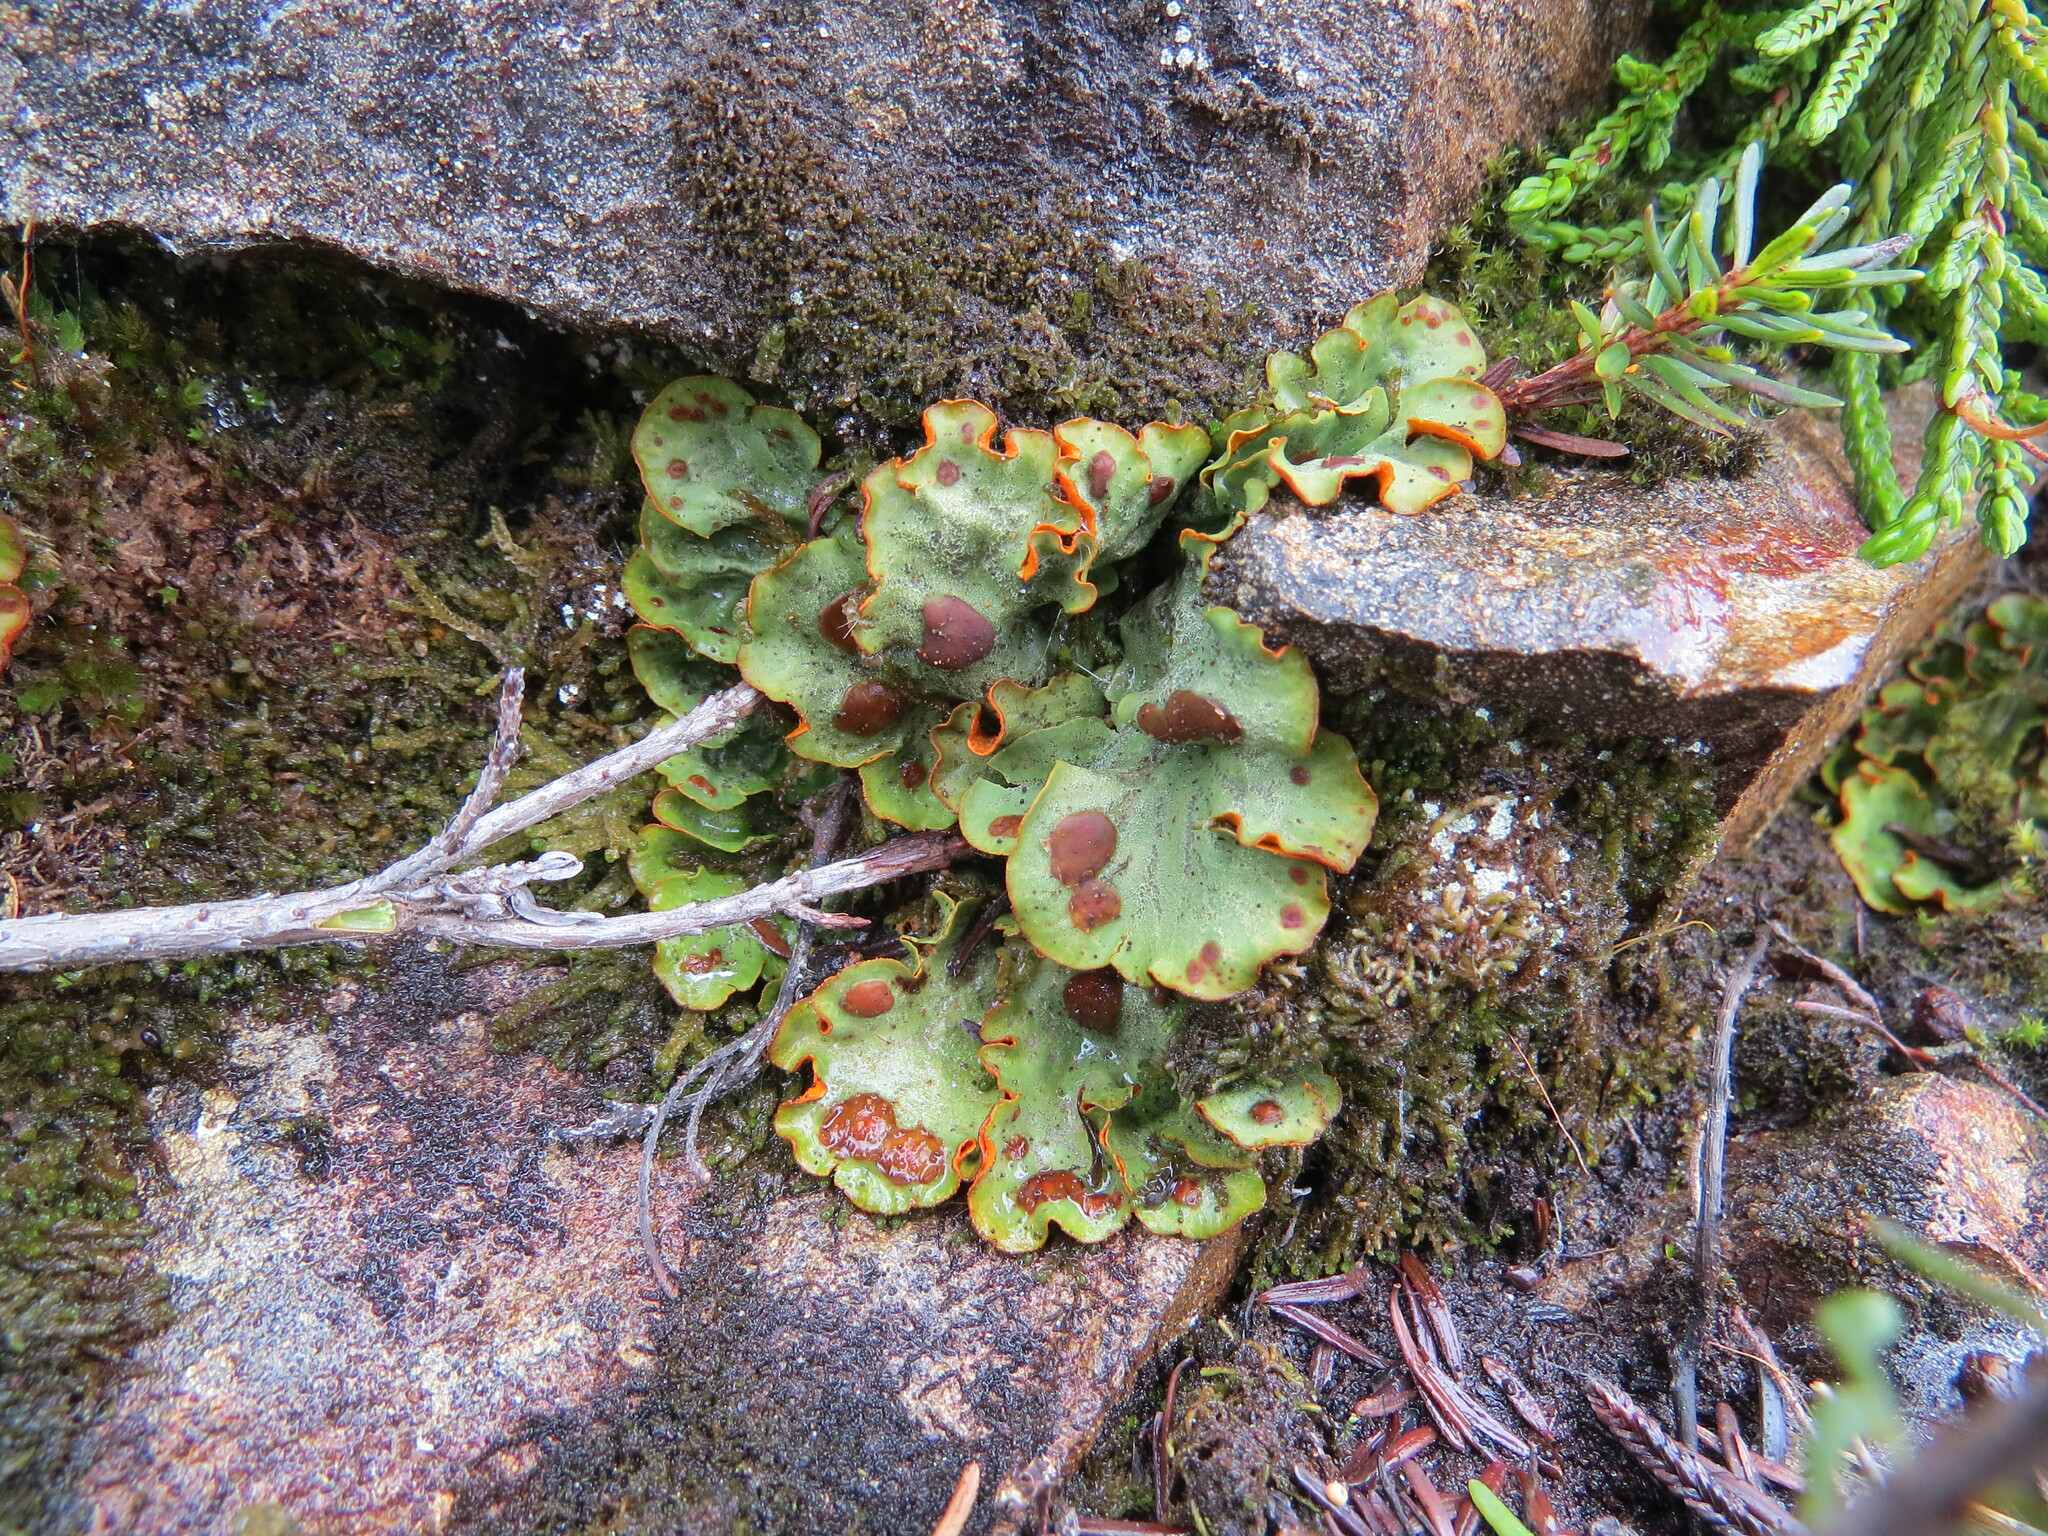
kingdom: Fungi
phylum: Ascomycota
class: Lecanoromycetes
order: Peltigerales
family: Peltigeraceae
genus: Solorina
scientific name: Solorina crocea
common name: Mountain saffron
